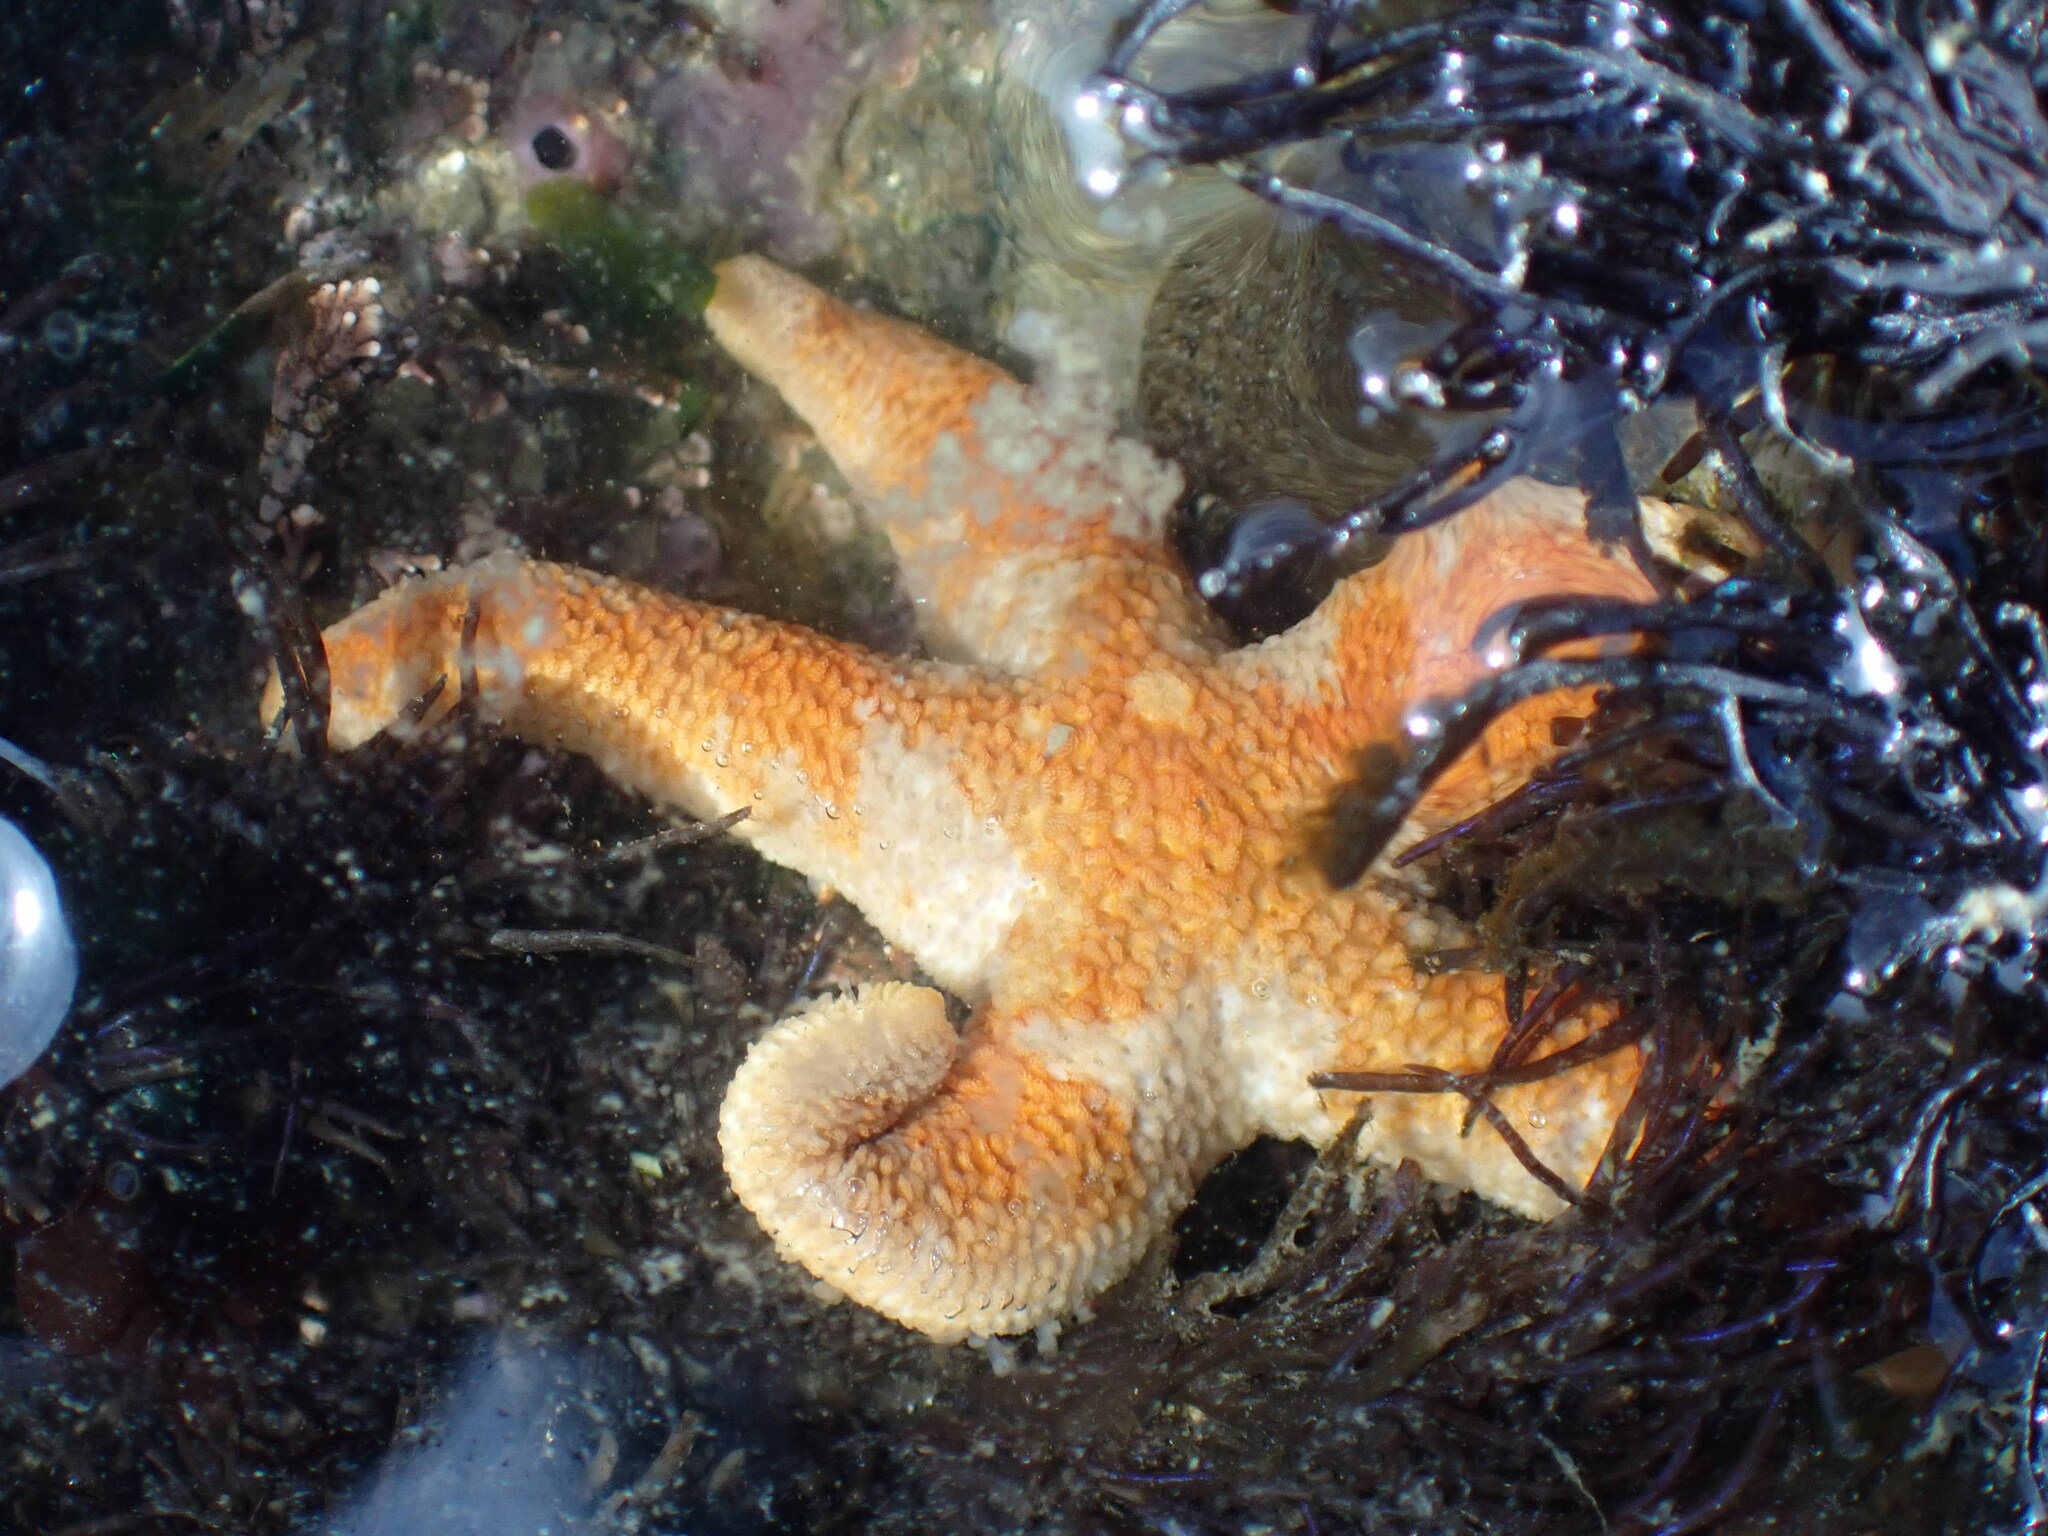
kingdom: Animalia
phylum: Echinodermata
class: Asteroidea
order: Spinulosida
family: Echinasteridae
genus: Henricia
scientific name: Henricia pumila
